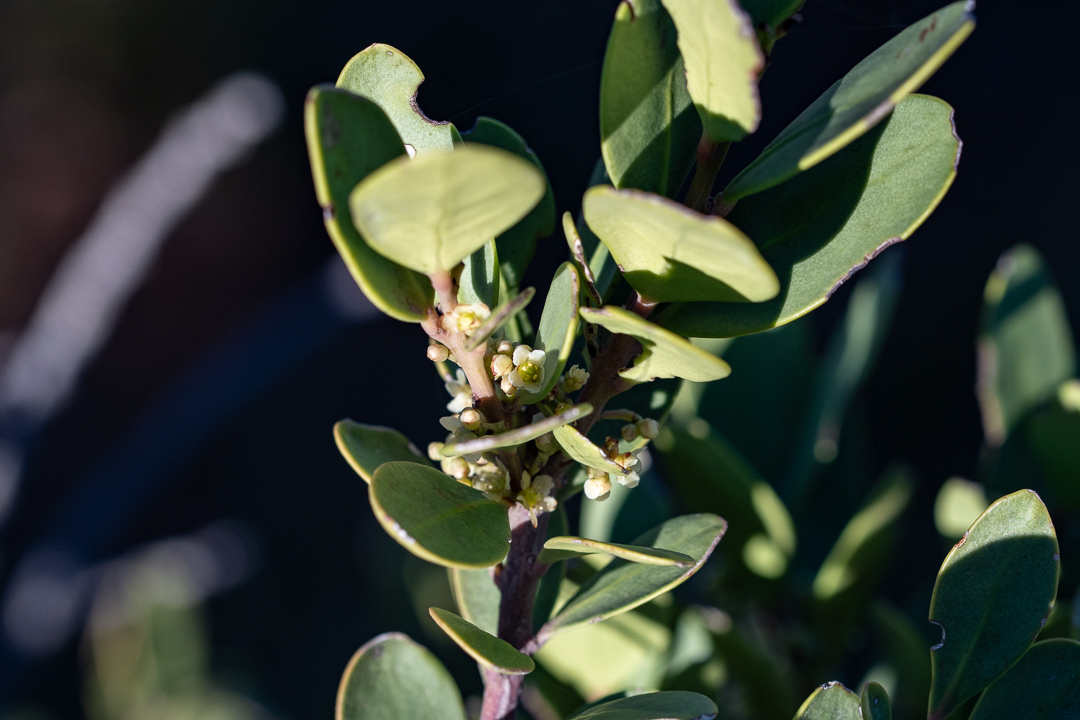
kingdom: Plantae
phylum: Tracheophyta
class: Magnoliopsida
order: Celastrales
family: Celastraceae
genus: Gymnosporia
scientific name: Gymnosporia laurina
